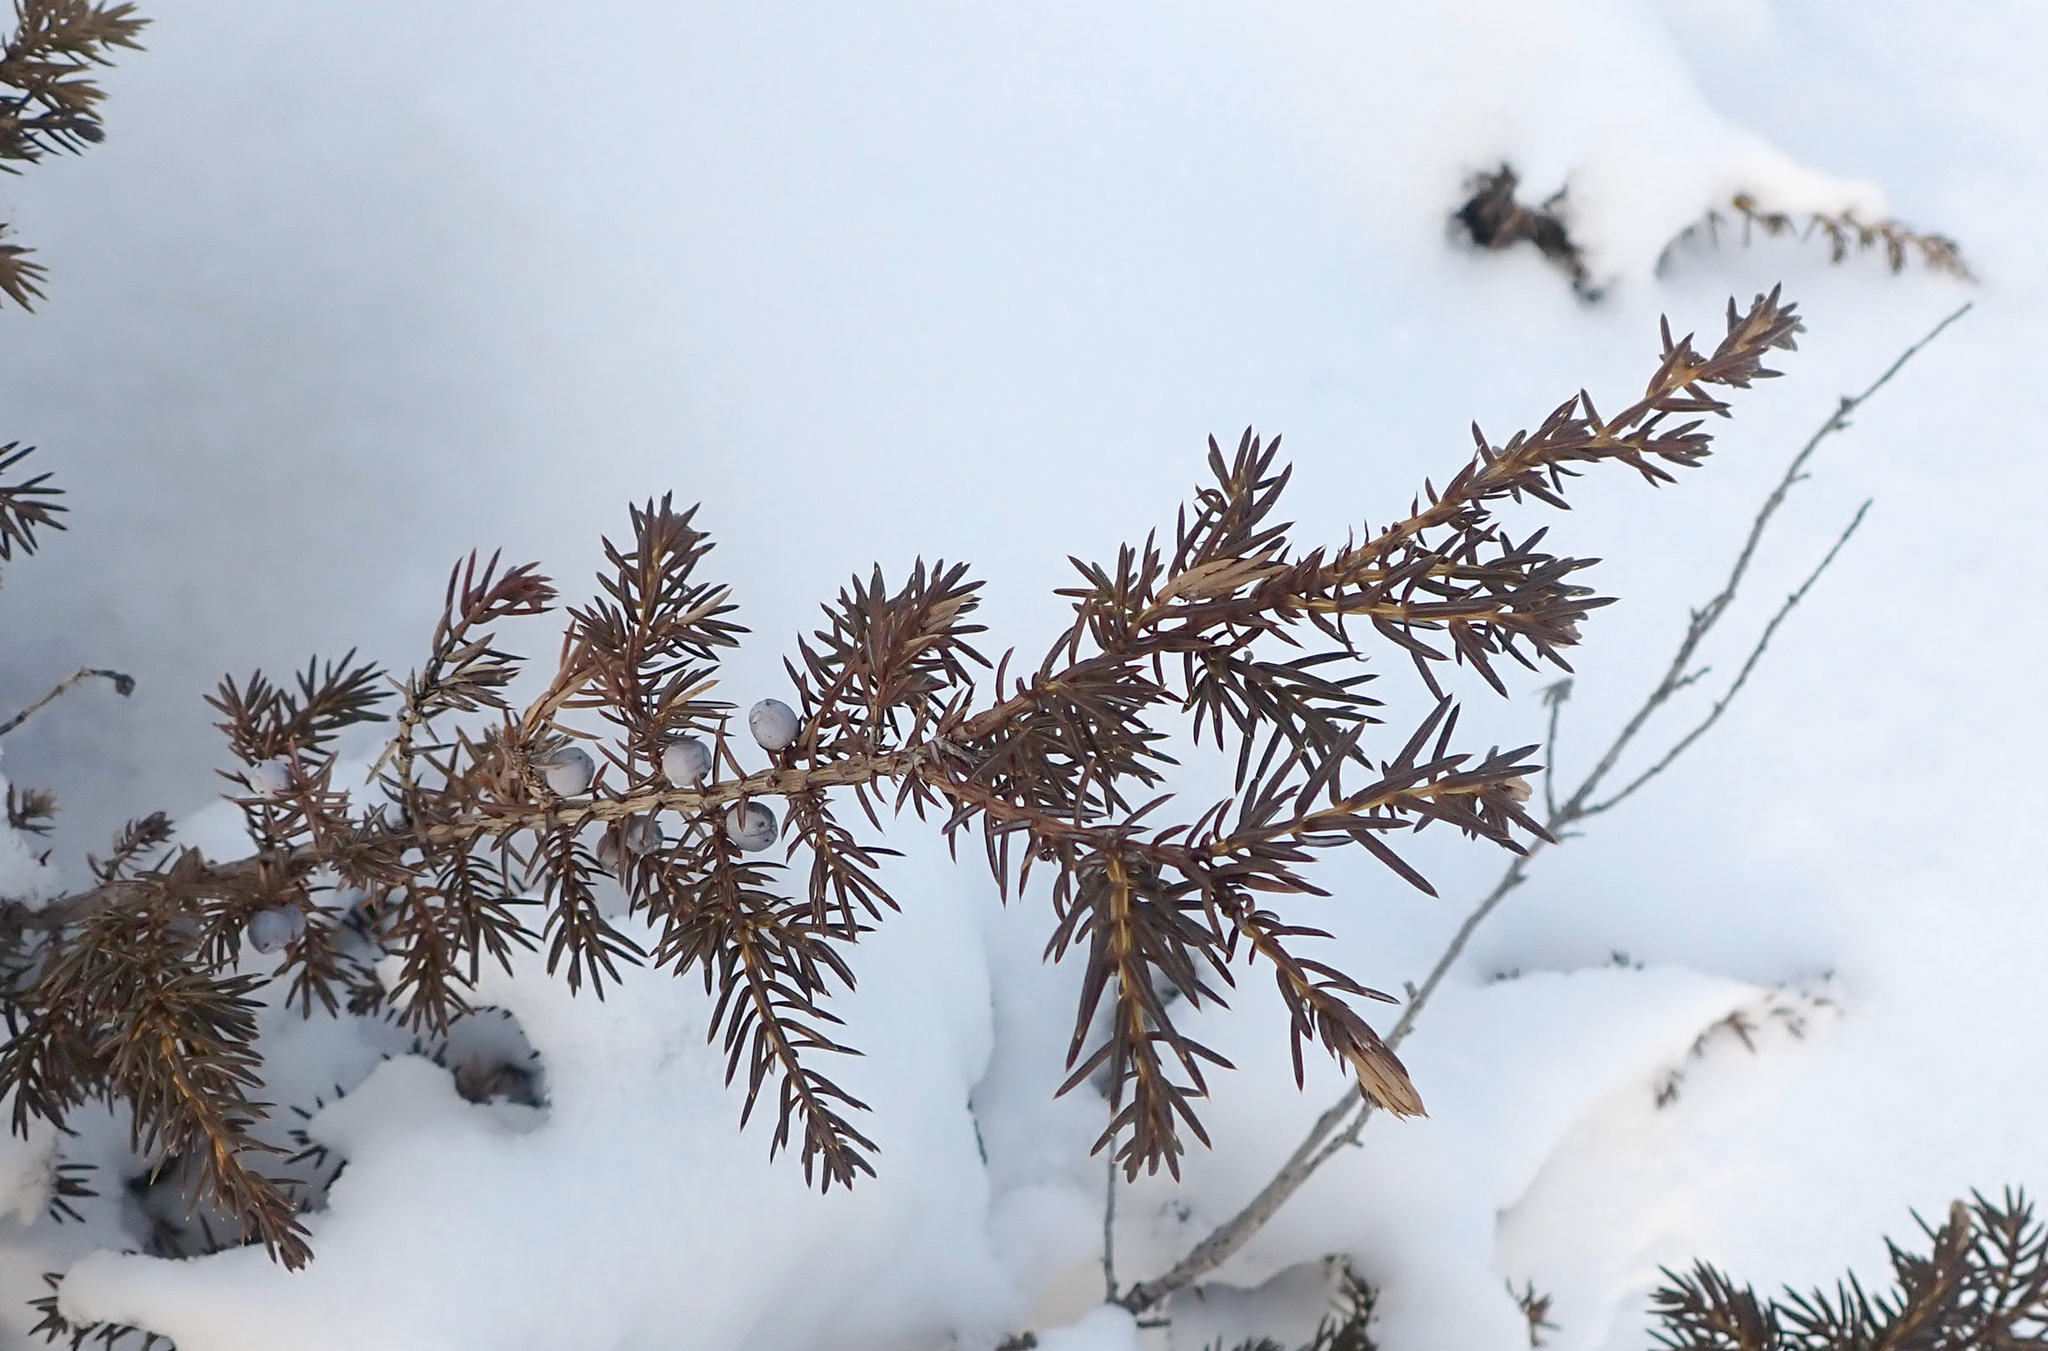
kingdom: Plantae
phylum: Tracheophyta
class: Pinopsida
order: Pinales
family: Cupressaceae
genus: Juniperus
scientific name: Juniperus communis
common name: Common juniper
